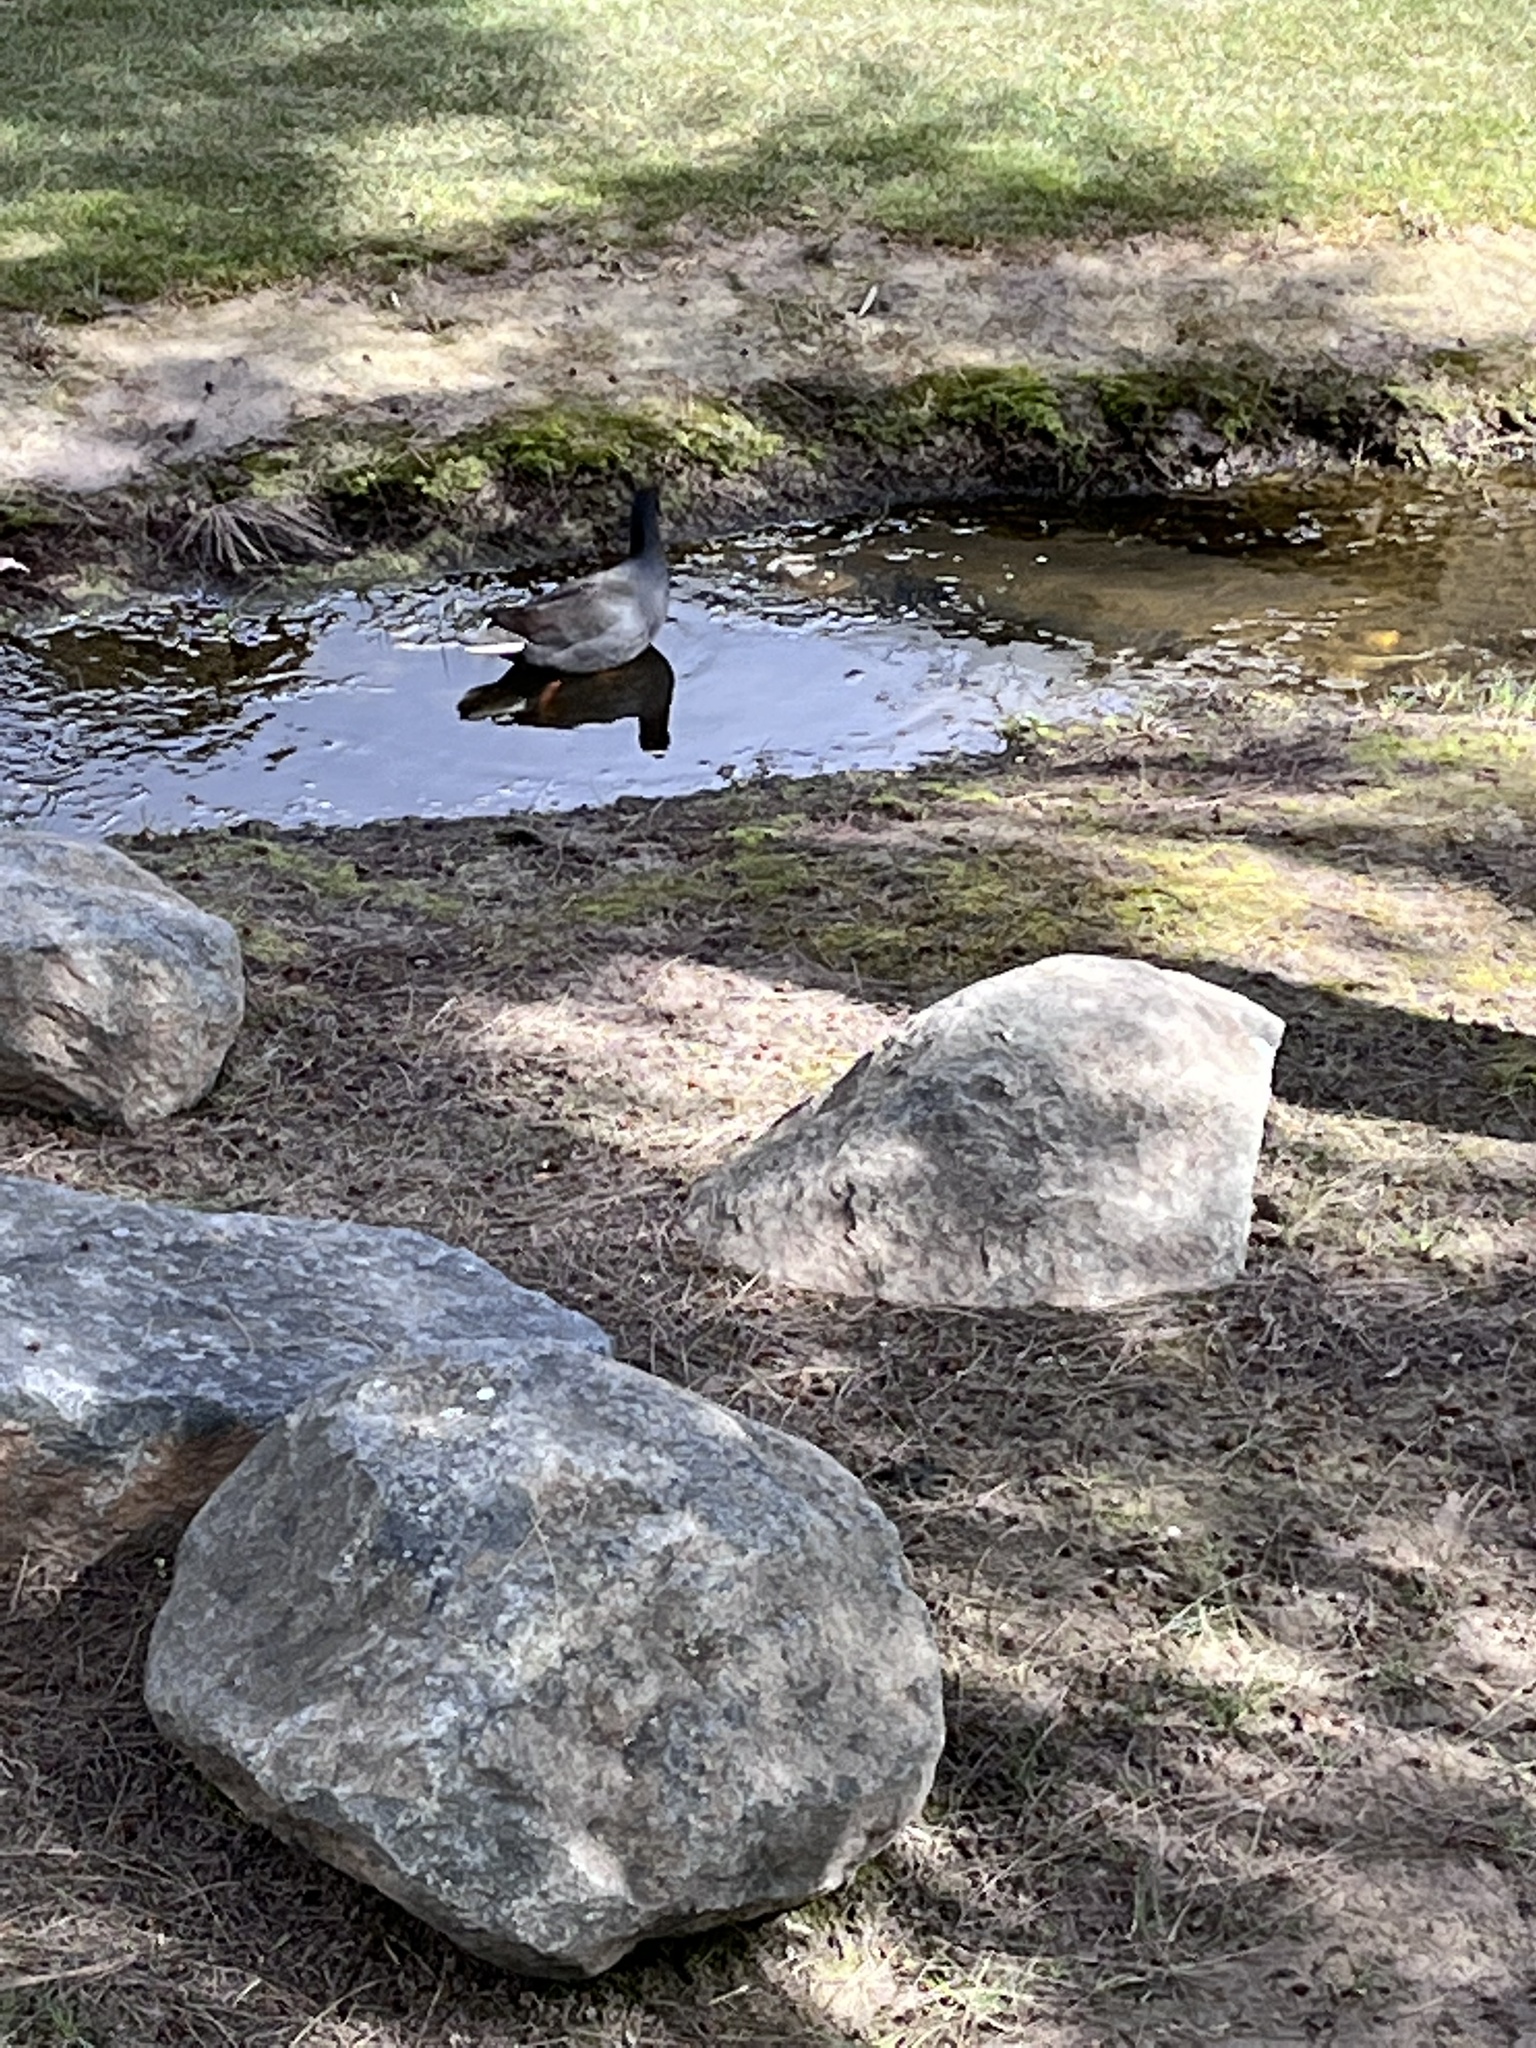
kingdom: Animalia
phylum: Chordata
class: Aves
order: Gruiformes
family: Rallidae
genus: Gallinula
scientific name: Gallinula tenebrosa
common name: Dusky moorhen
